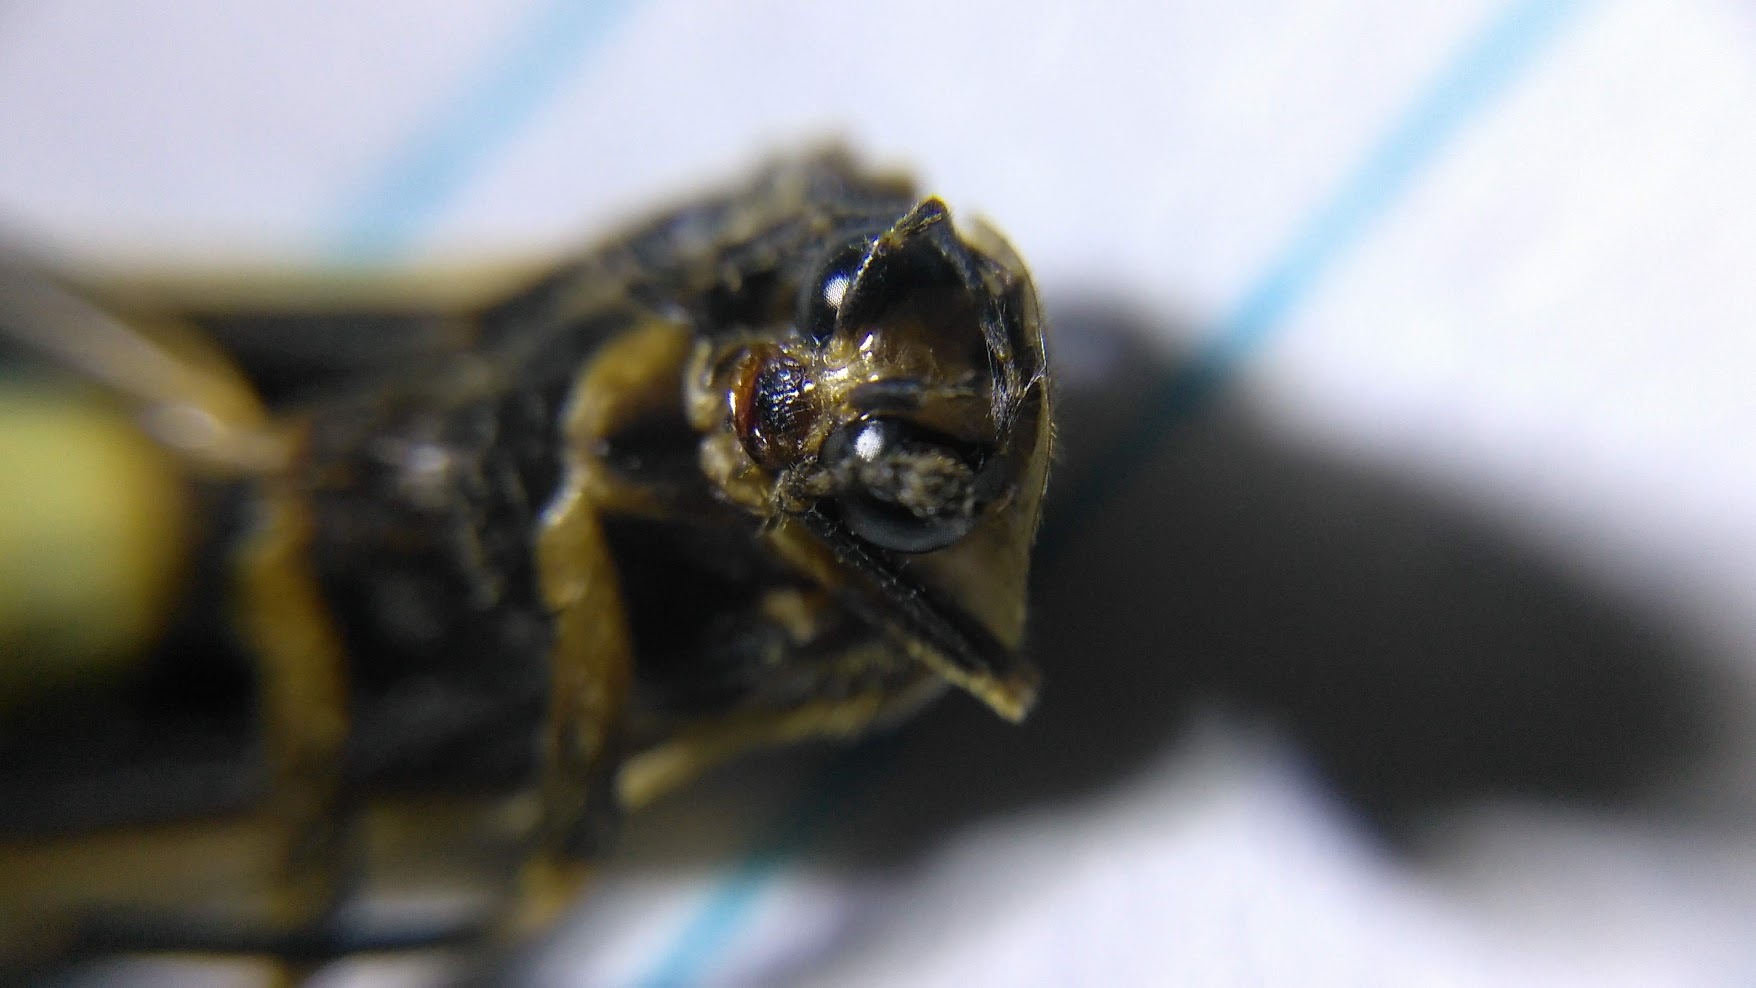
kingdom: Animalia
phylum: Arthropoda
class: Insecta
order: Coleoptera
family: Lampyridae
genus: Photuris
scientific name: Photuris
